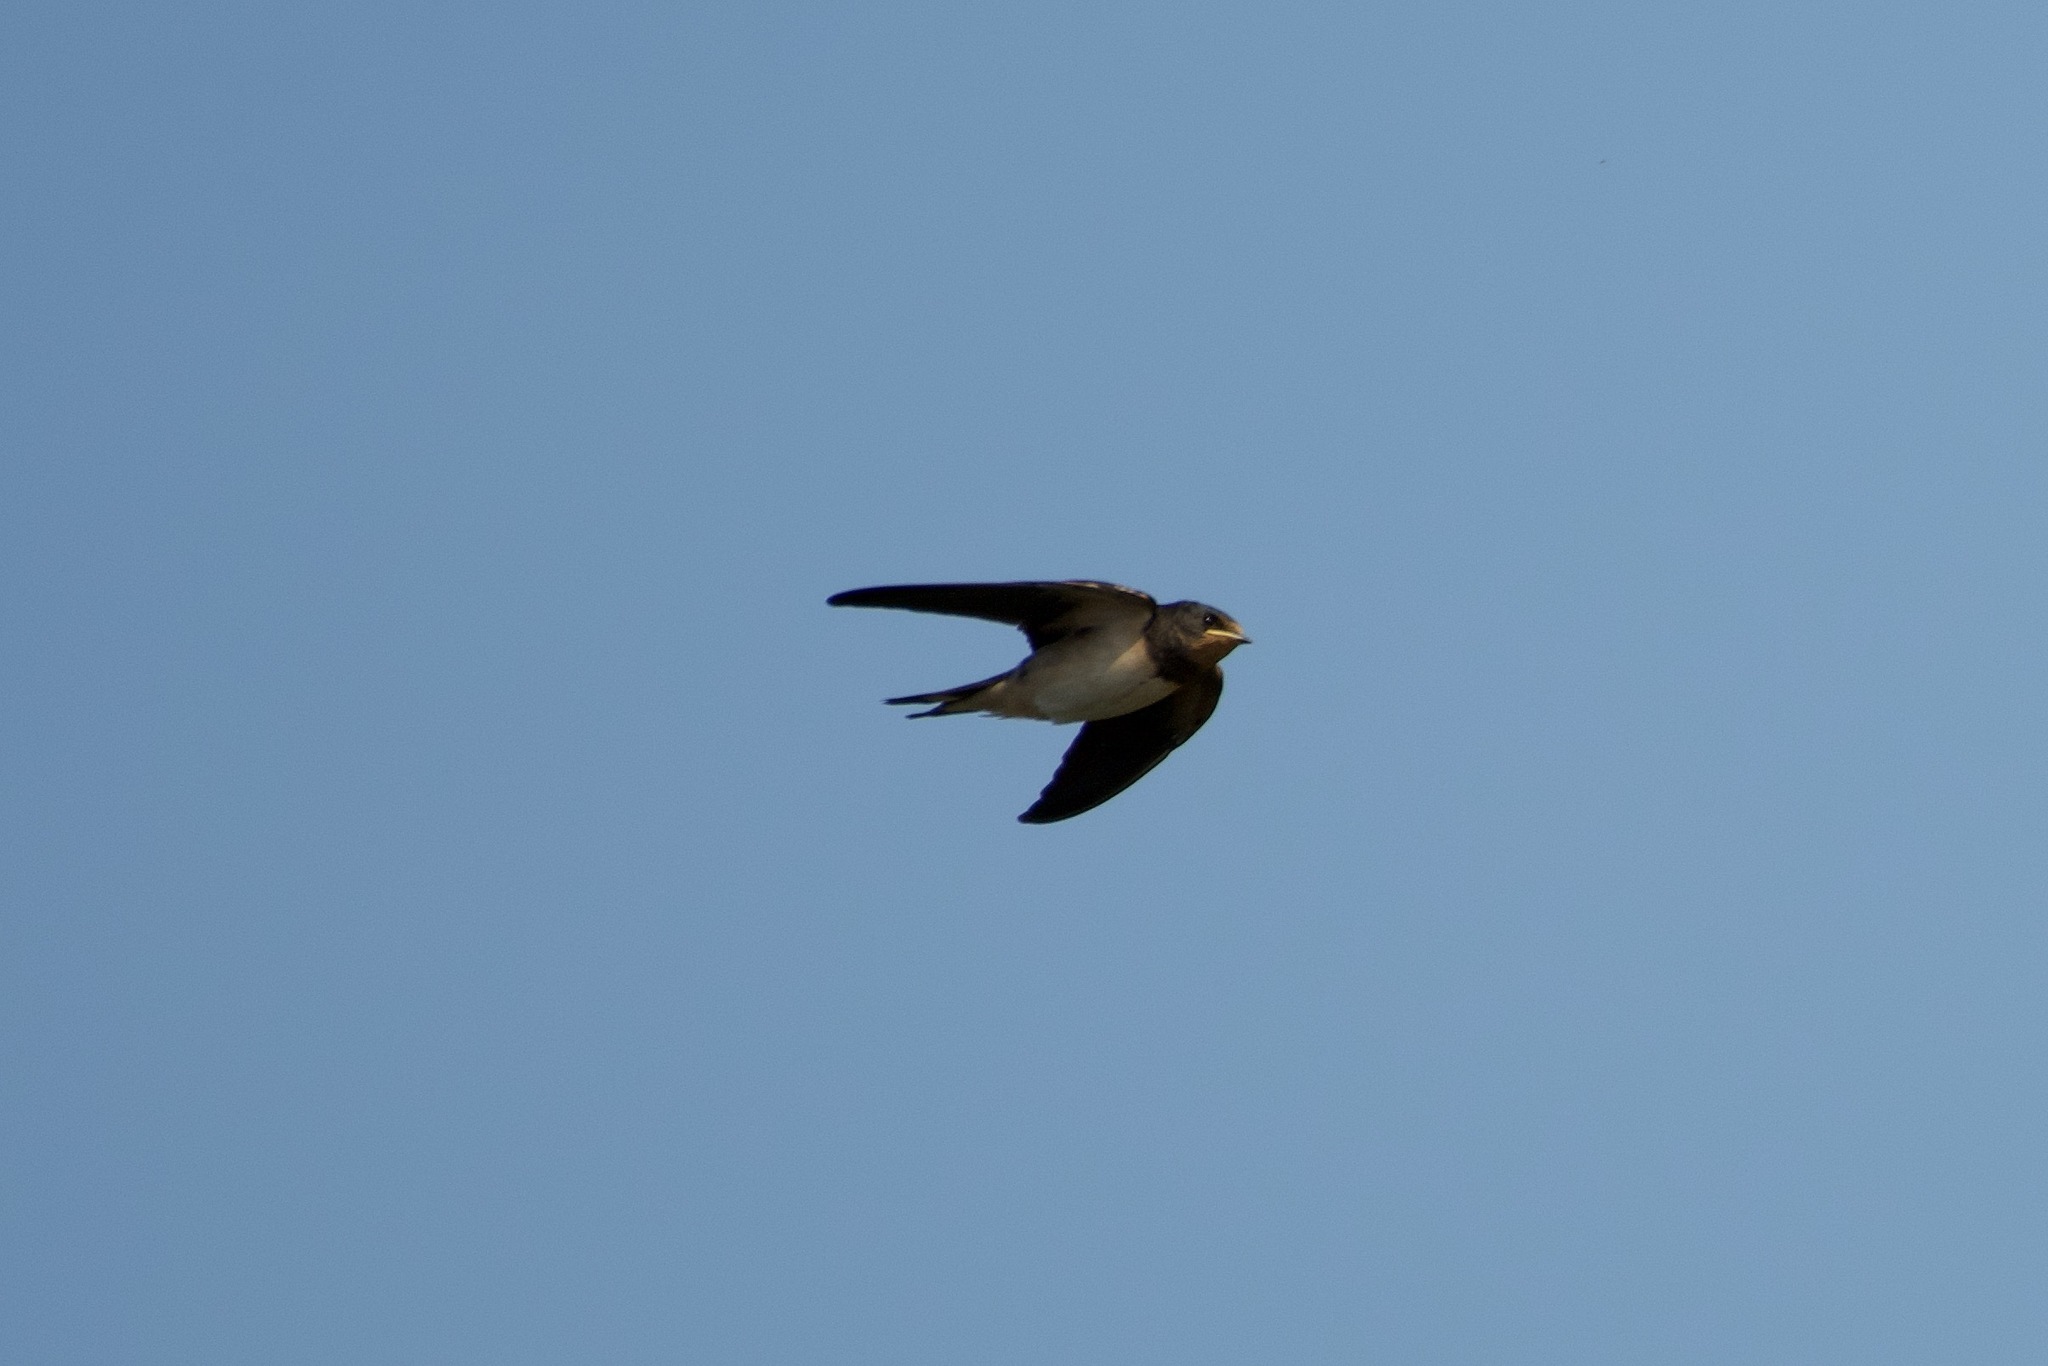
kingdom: Animalia
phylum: Chordata
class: Aves
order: Passeriformes
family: Hirundinidae
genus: Hirundo
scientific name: Hirundo rustica
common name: Barn swallow
